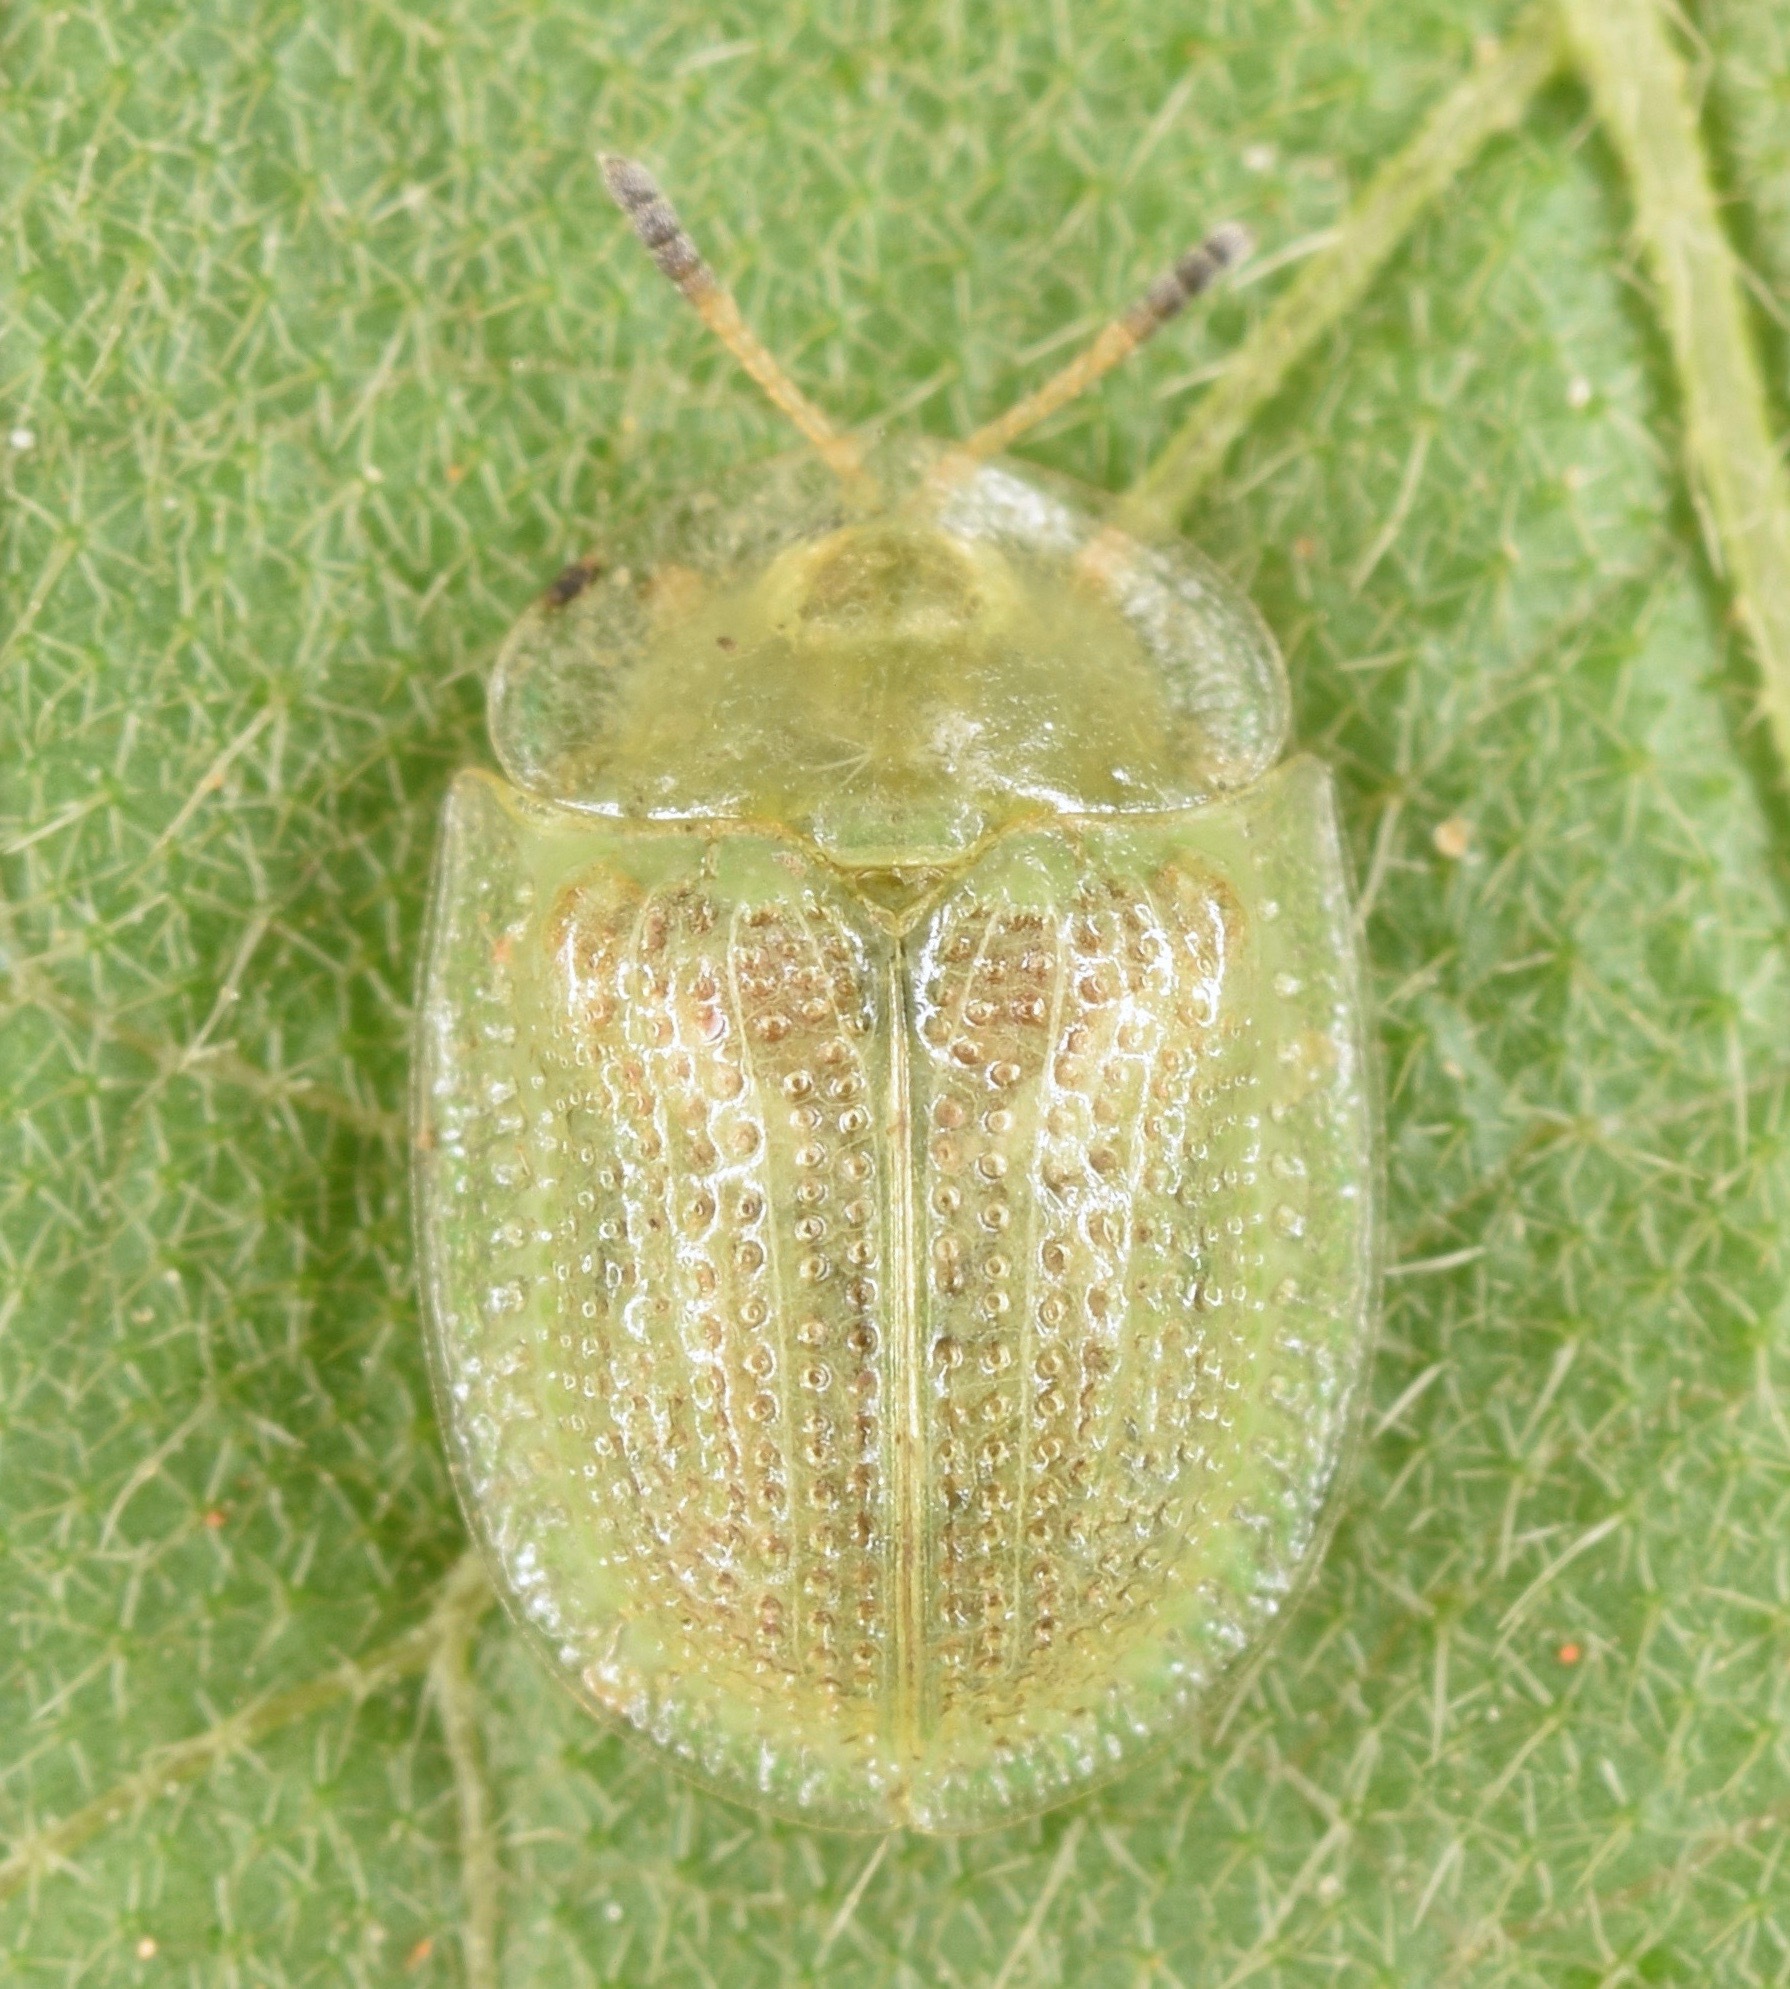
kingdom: Animalia
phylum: Arthropoda
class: Insecta
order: Coleoptera
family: Chrysomelidae
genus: Gratiana
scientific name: Gratiana pallidula
